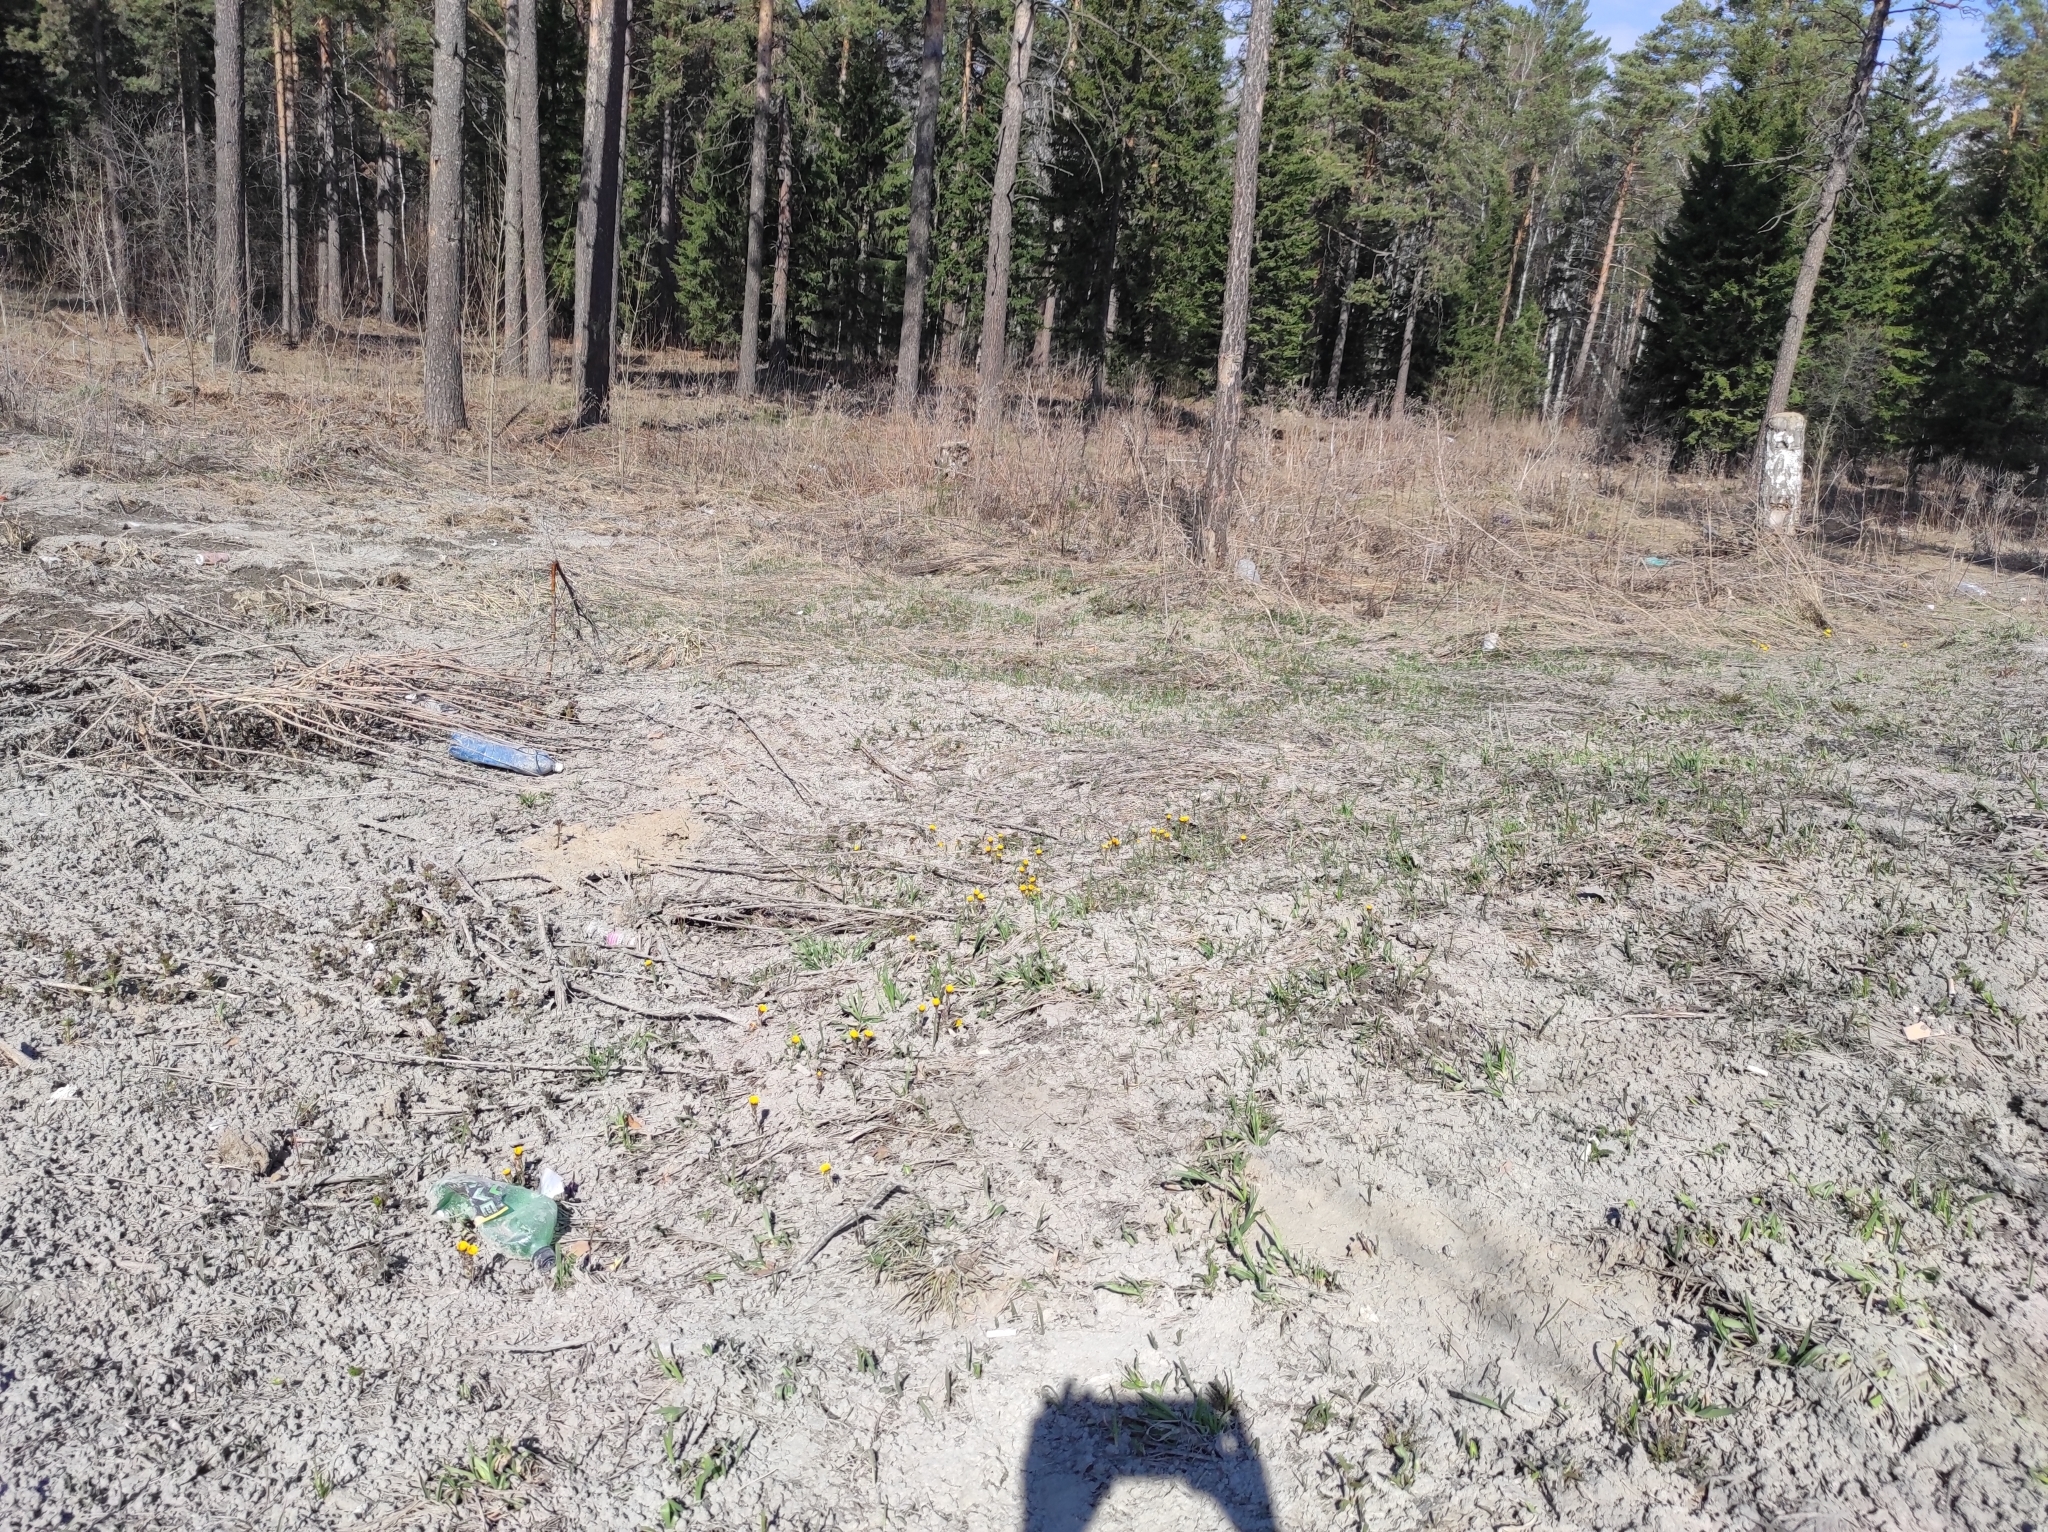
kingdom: Plantae
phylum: Tracheophyta
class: Magnoliopsida
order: Asterales
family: Asteraceae
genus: Tussilago
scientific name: Tussilago farfara
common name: Coltsfoot
